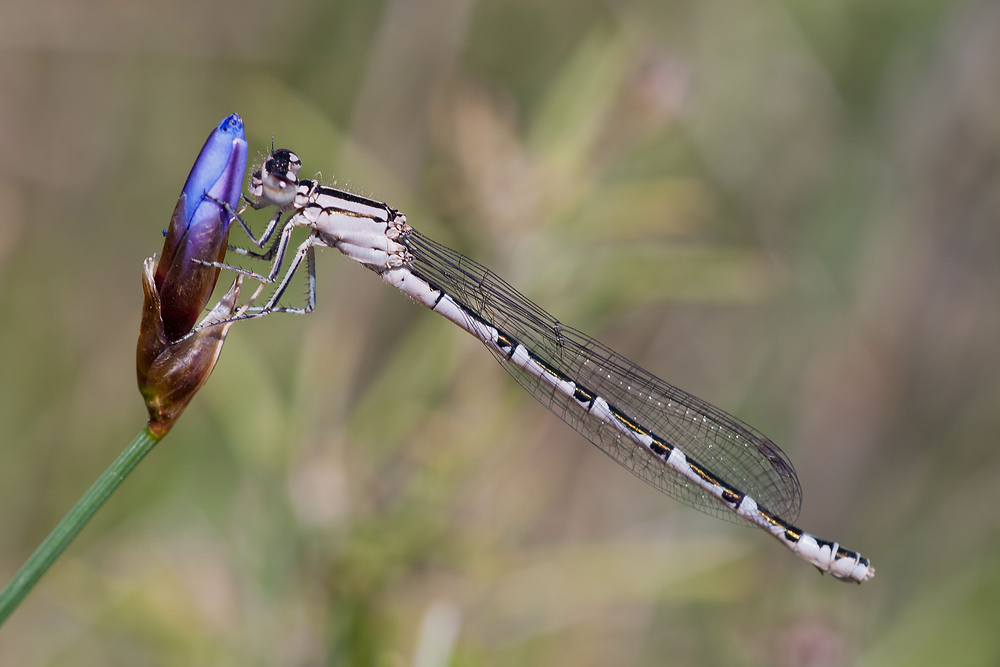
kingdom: Animalia
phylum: Arthropoda
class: Insecta
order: Odonata
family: Coenagrionidae
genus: Enallagma
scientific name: Enallagma cyathigerum
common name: Common blue damselfly
